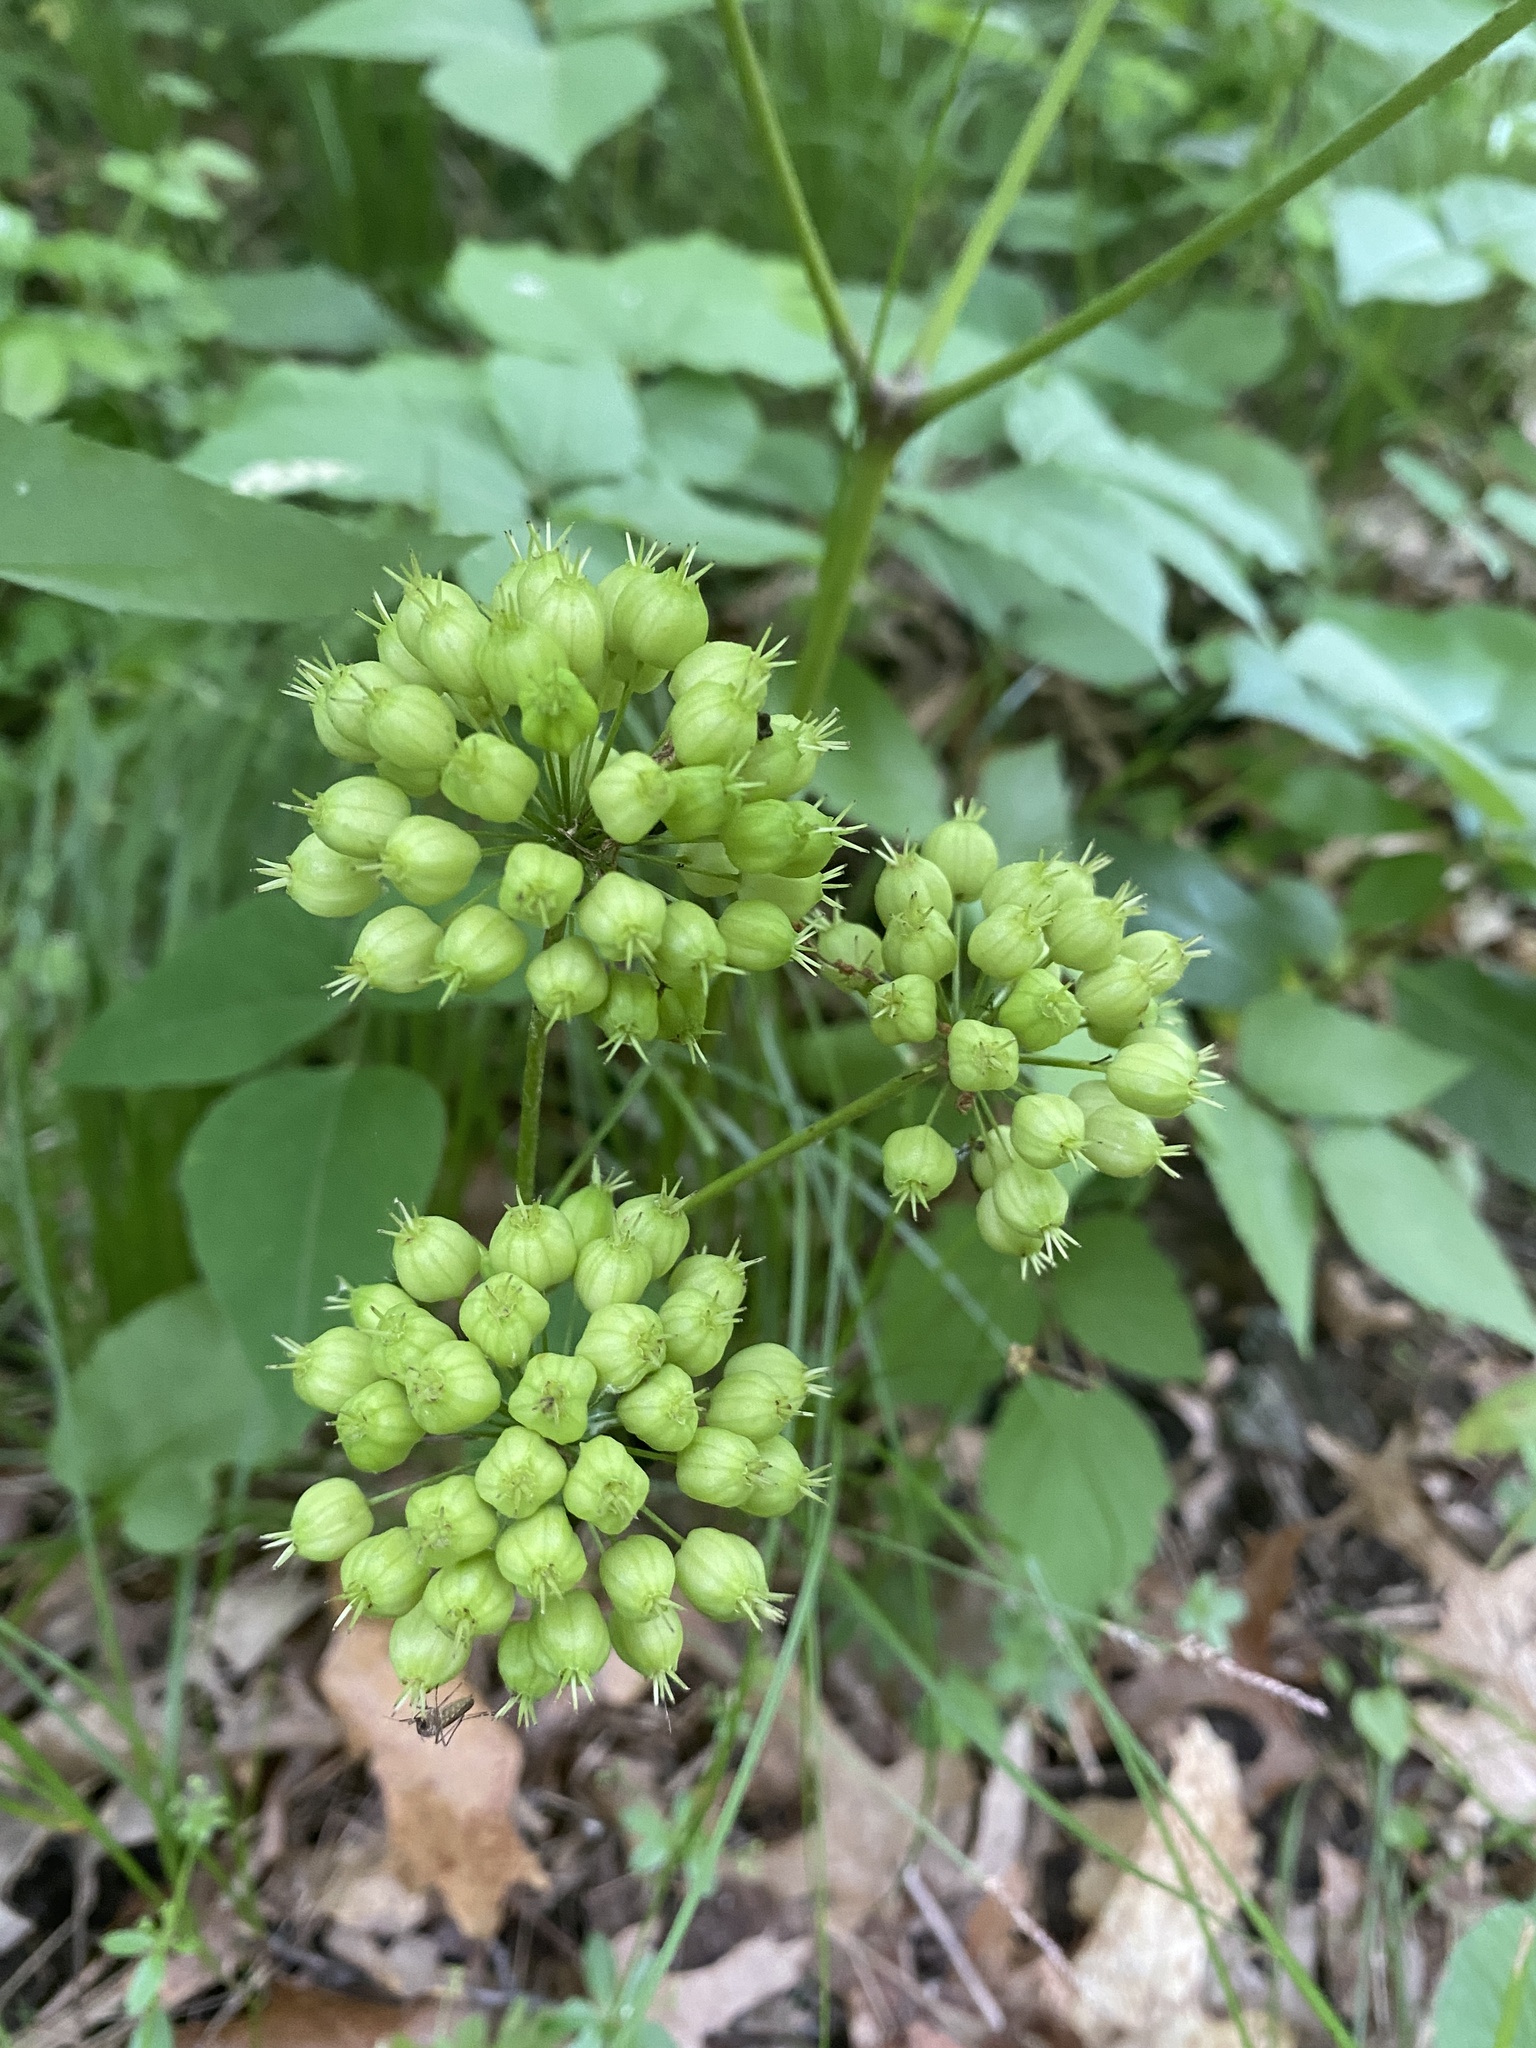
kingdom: Plantae
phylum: Tracheophyta
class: Magnoliopsida
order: Apiales
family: Araliaceae
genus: Aralia
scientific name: Aralia nudicaulis
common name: Wild sarsaparilla
